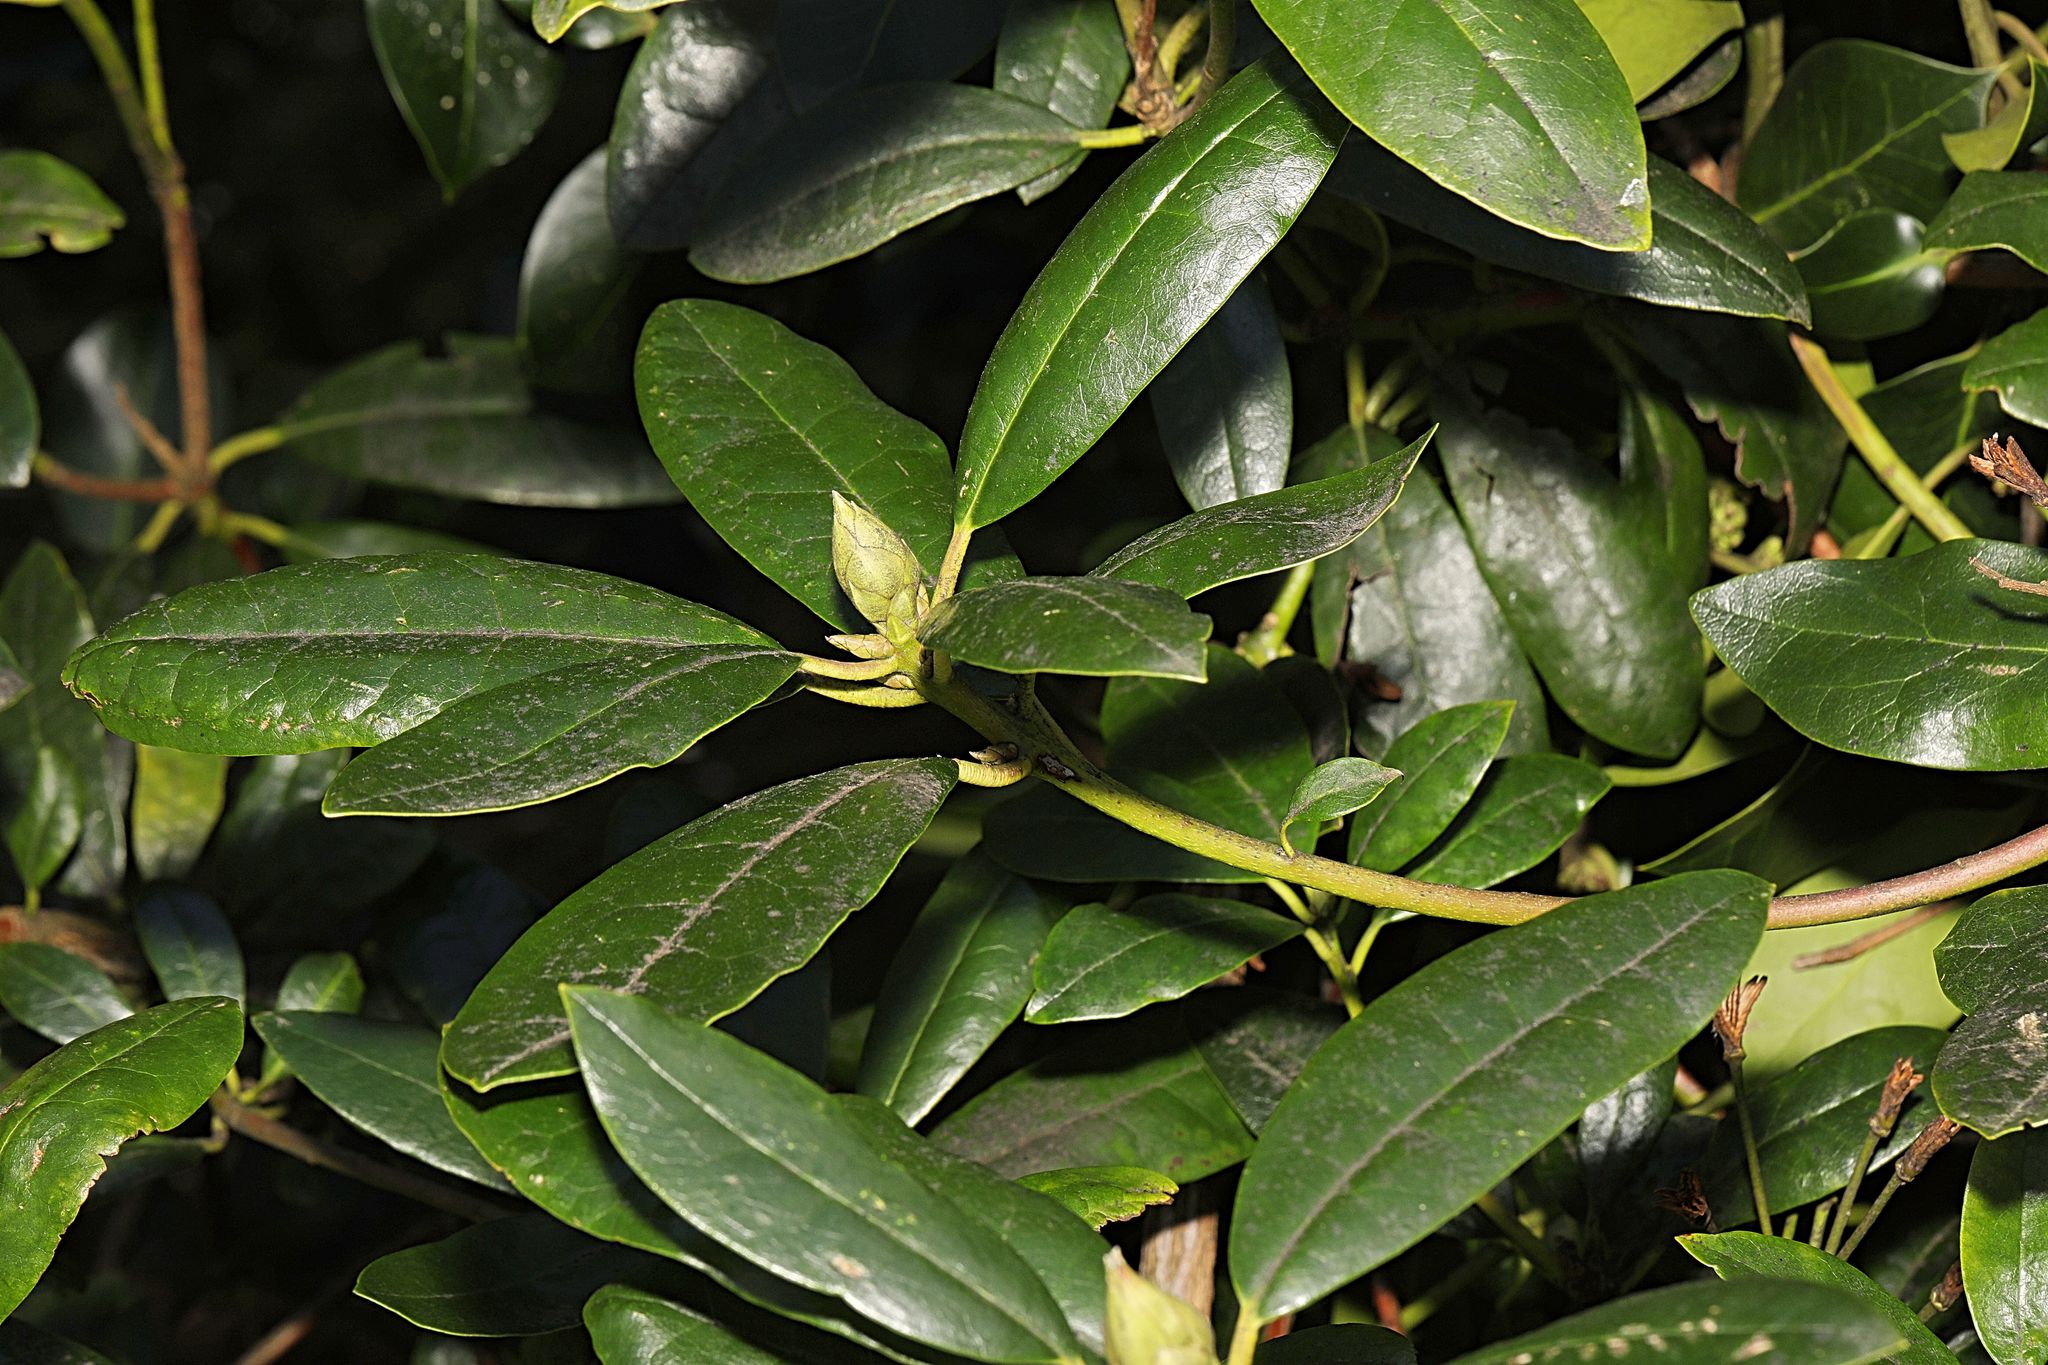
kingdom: Plantae
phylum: Tracheophyta
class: Magnoliopsida
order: Ericales
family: Ericaceae
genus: Rhododendron
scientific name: Rhododendron ponticum
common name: Rhododendron
